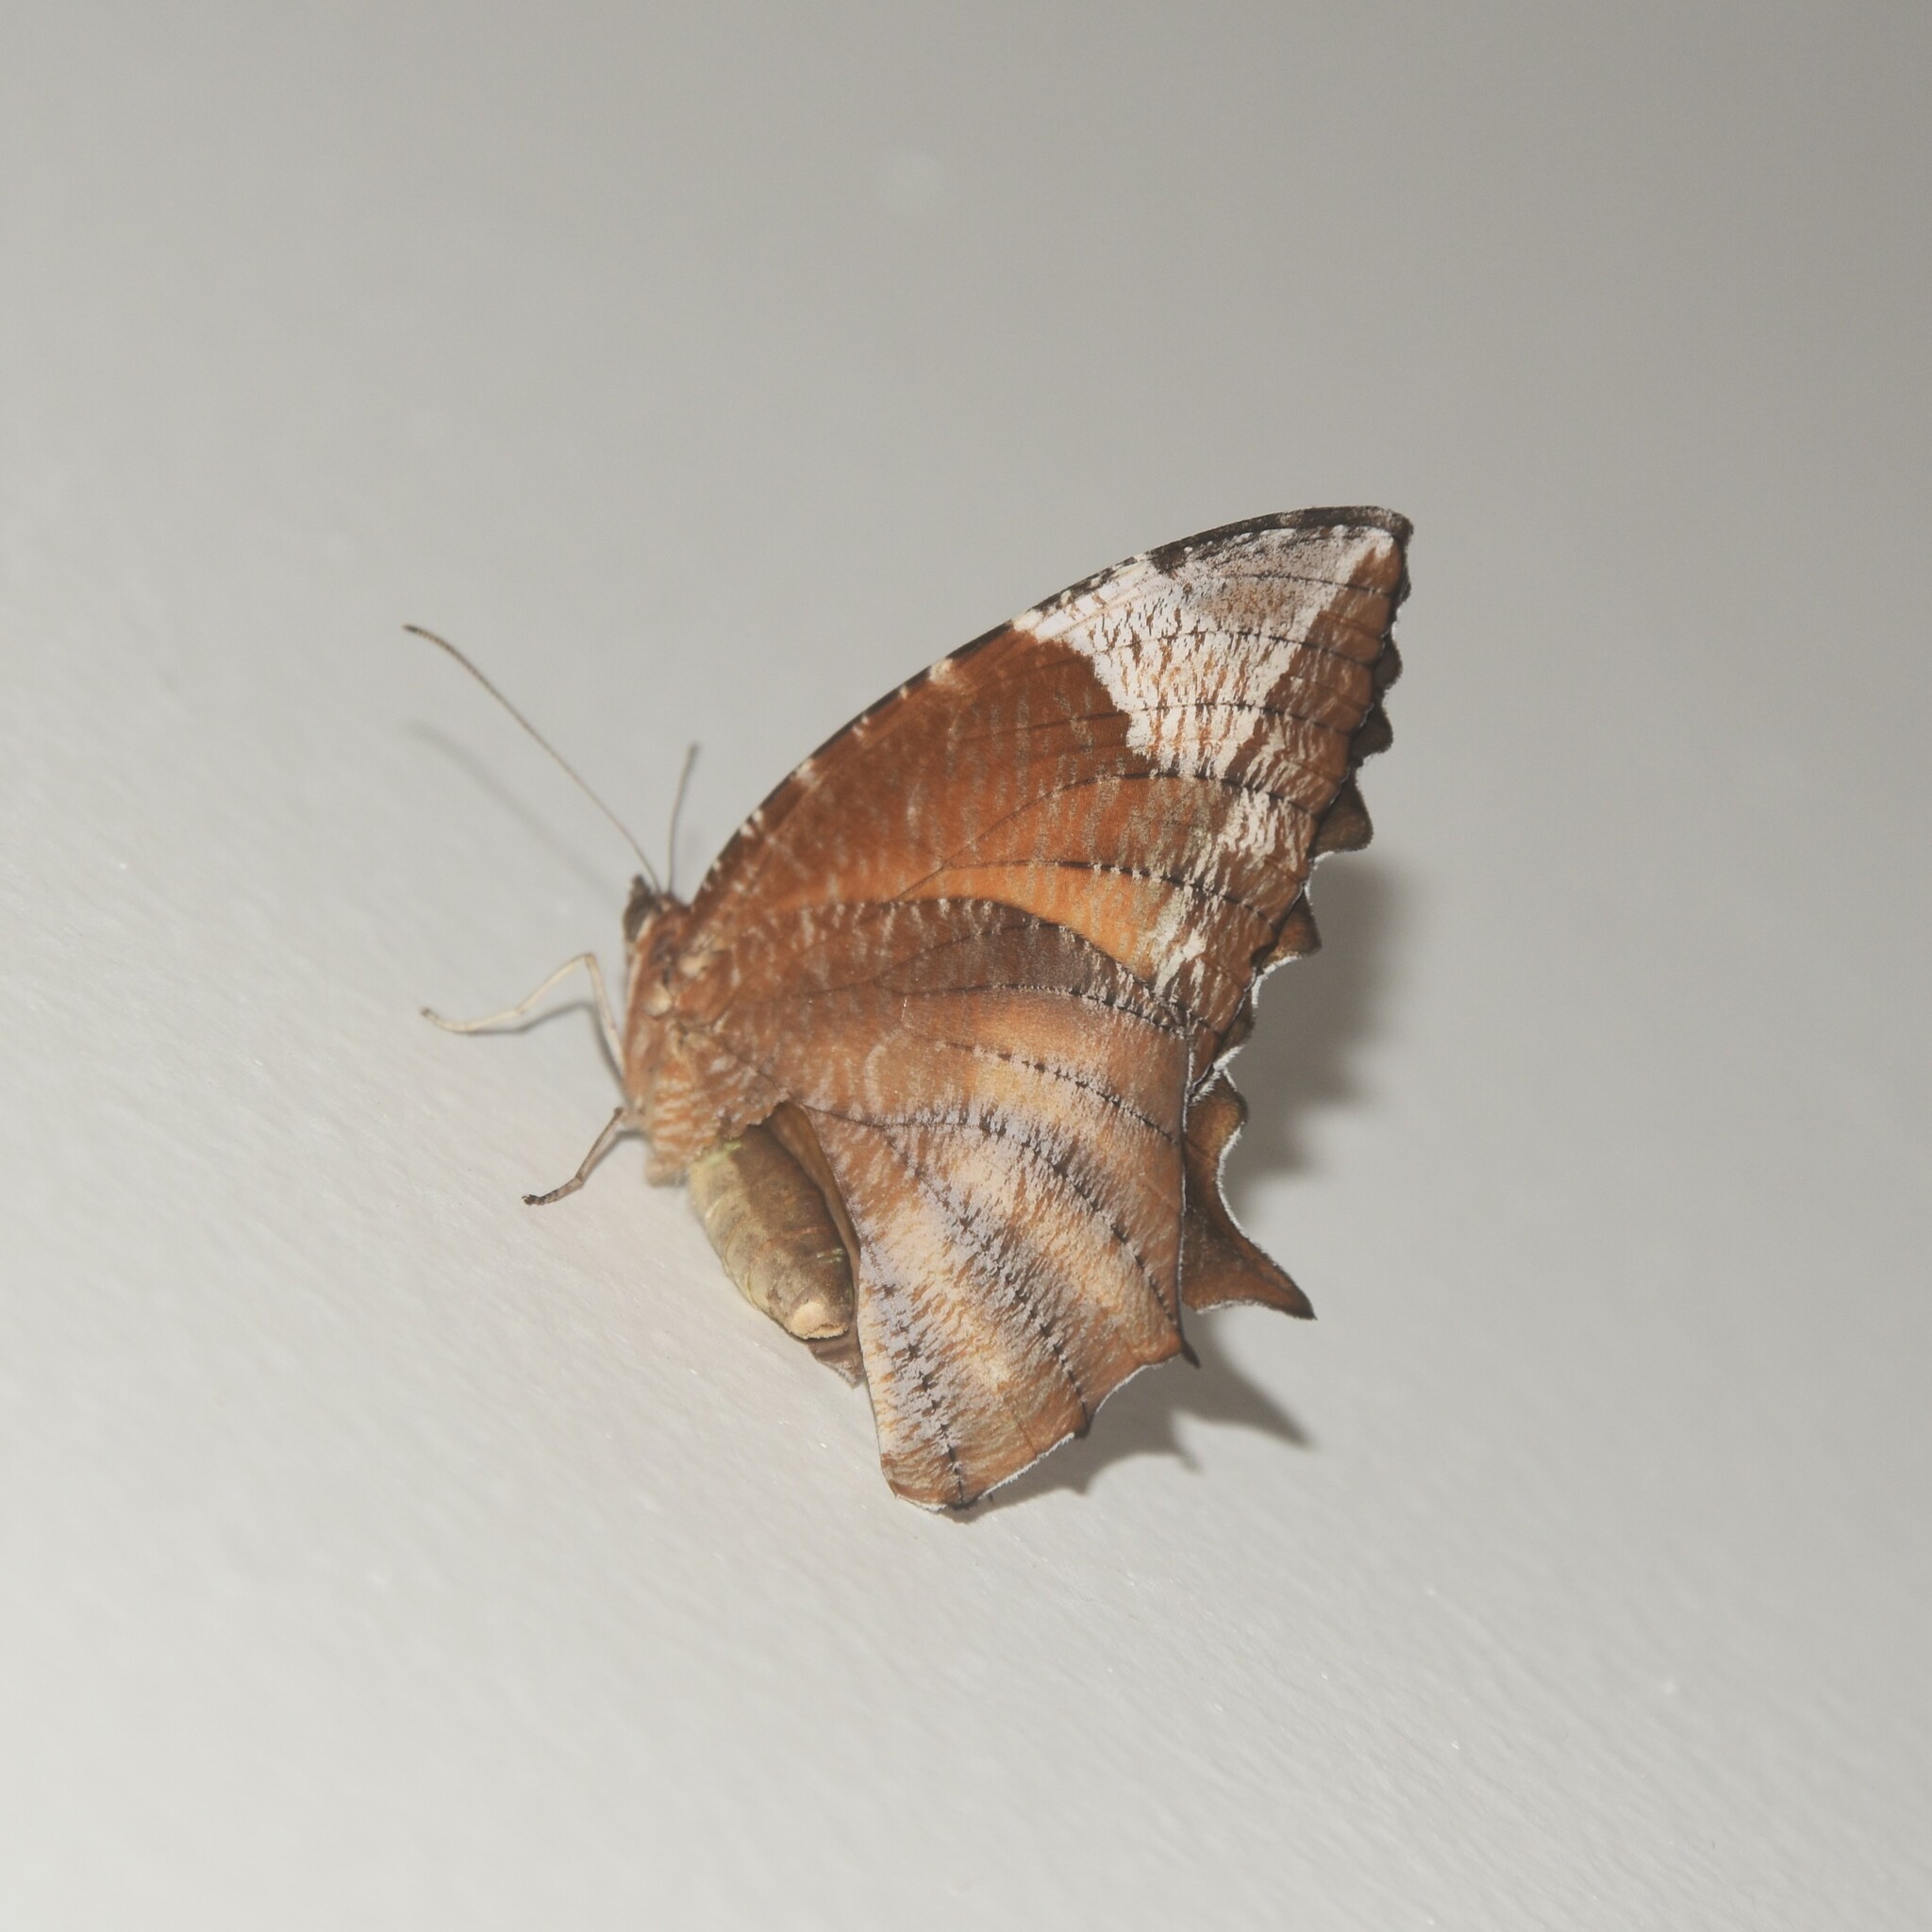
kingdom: Animalia
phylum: Arthropoda
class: Insecta
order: Lepidoptera
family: Nymphalidae
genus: Elymnias
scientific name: Elymnias caudata
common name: Tailed palmfly
